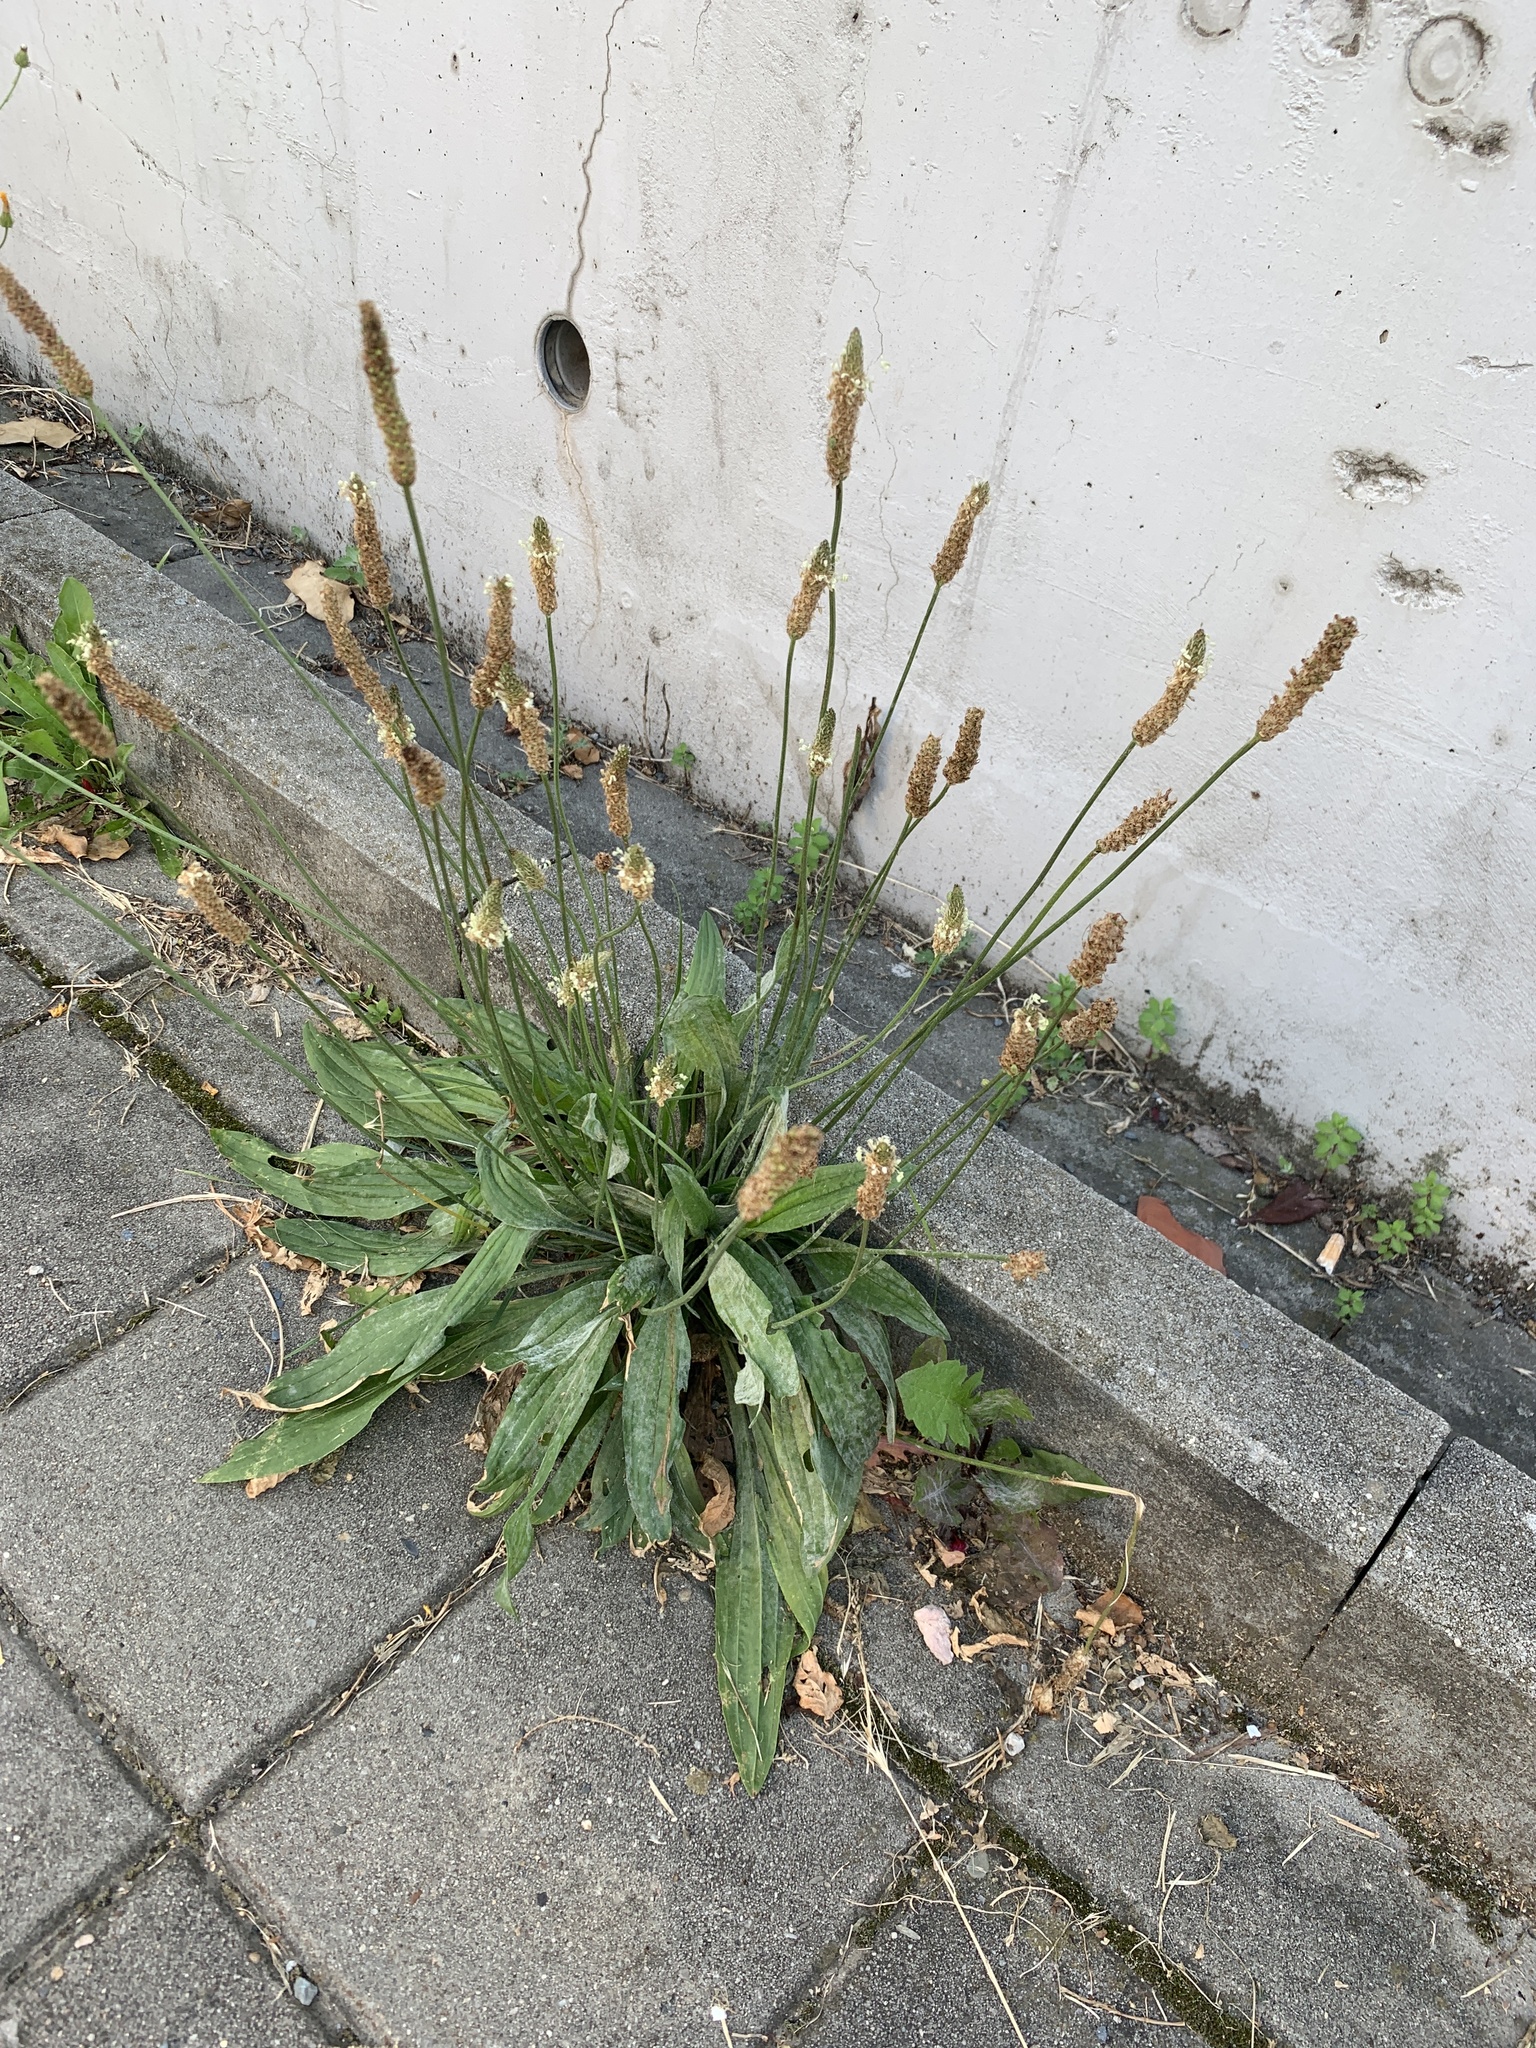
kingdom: Plantae
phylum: Tracheophyta
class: Magnoliopsida
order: Lamiales
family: Plantaginaceae
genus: Plantago
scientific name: Plantago lanceolata
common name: Ribwort plantain
